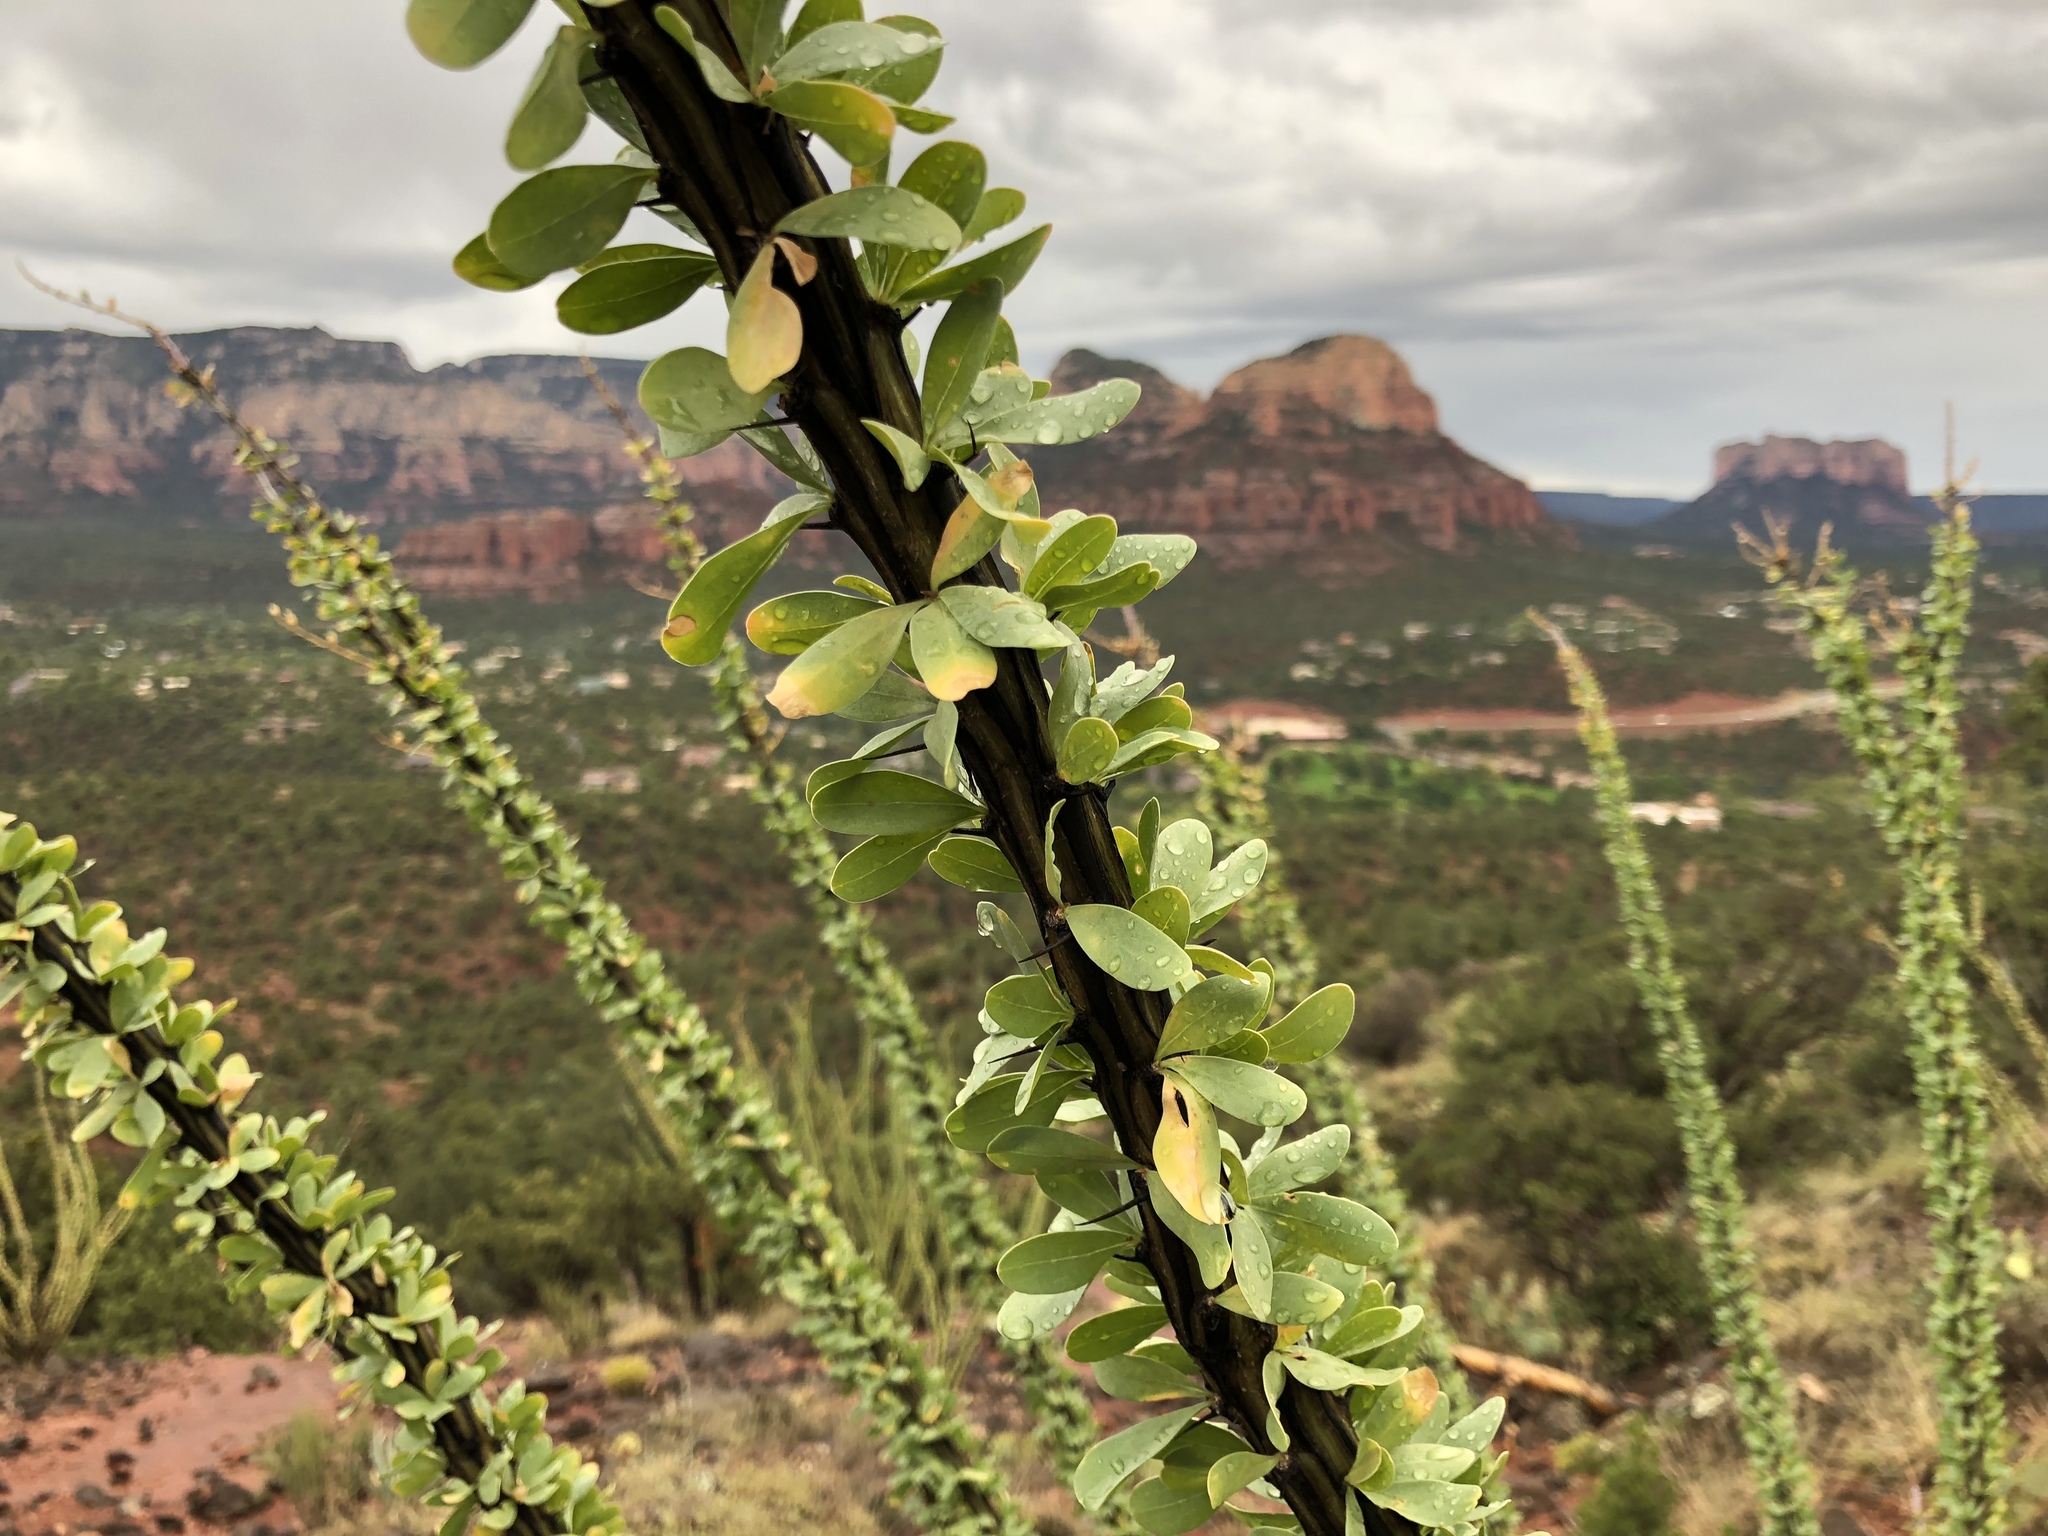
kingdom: Plantae
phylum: Tracheophyta
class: Magnoliopsida
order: Ericales
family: Fouquieriaceae
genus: Fouquieria
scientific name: Fouquieria splendens
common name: Vine-cactus
